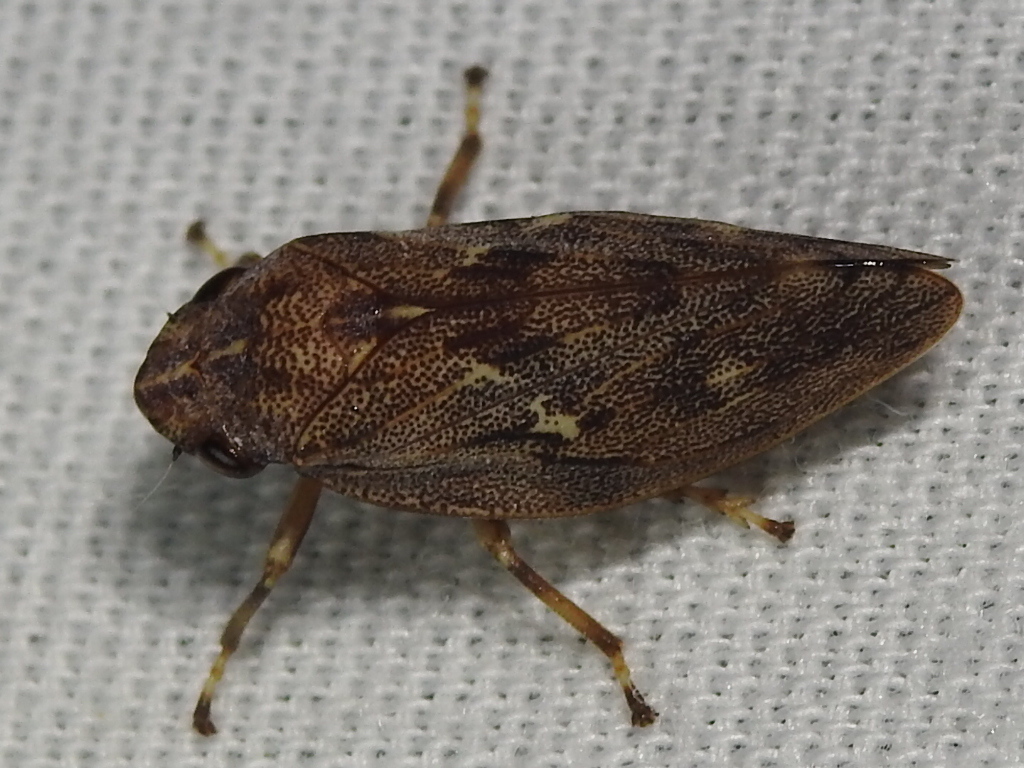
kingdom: Animalia
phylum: Arthropoda
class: Insecta
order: Hemiptera
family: Epipygidae
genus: Epipyga
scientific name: Epipyga cribrata
